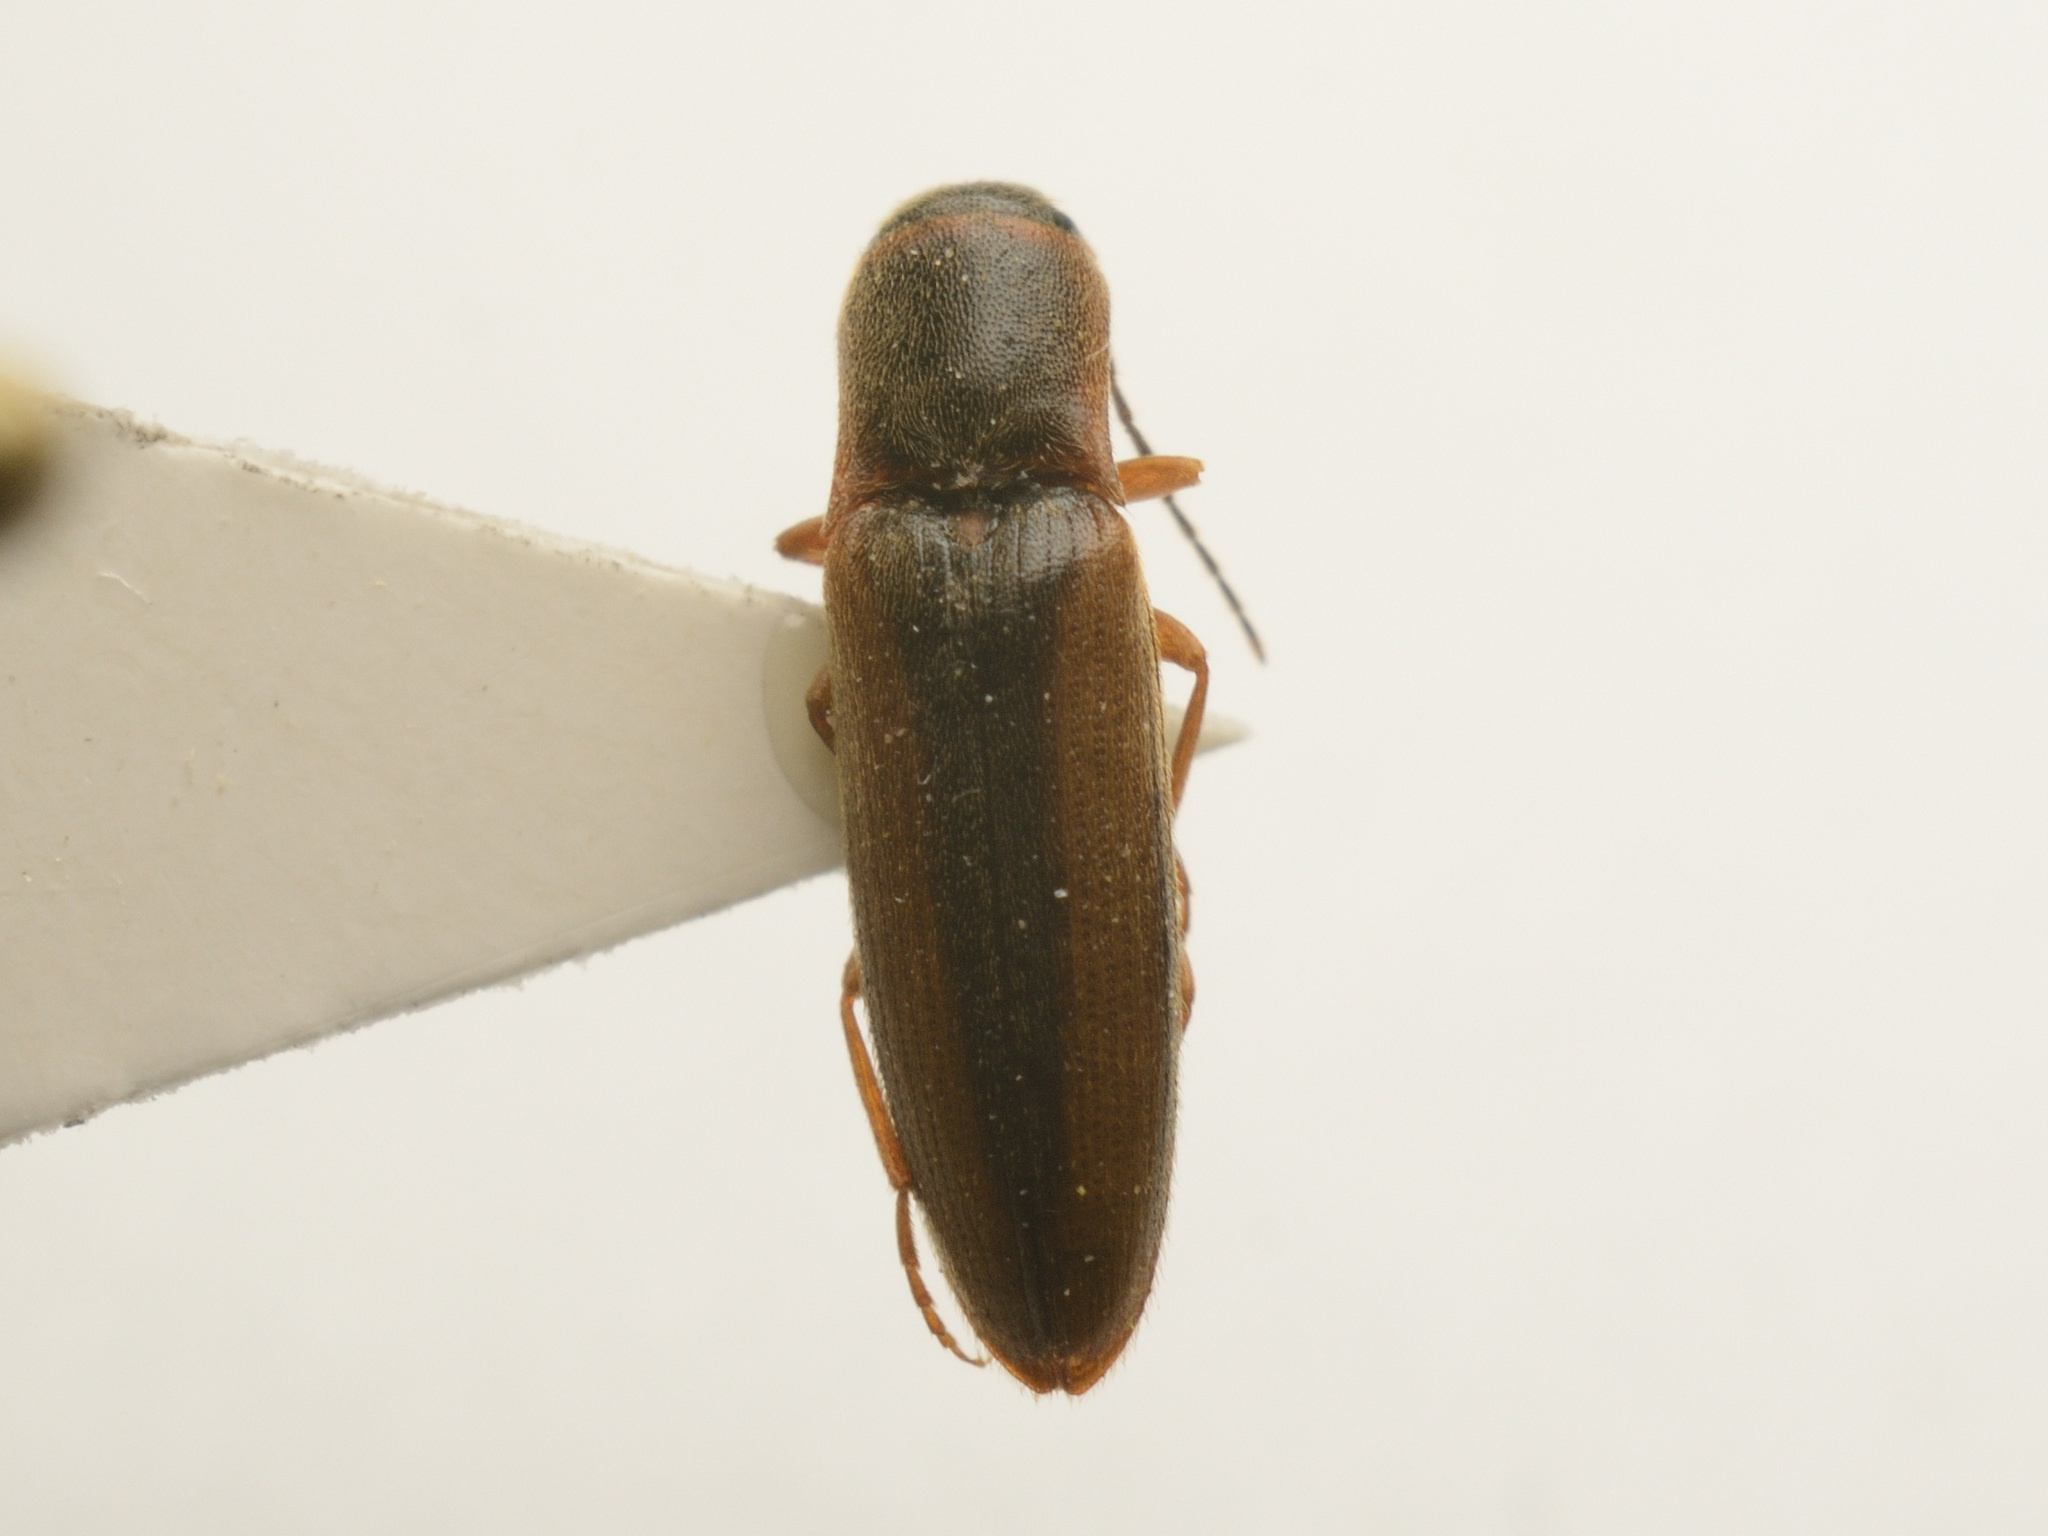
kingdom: Animalia
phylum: Arthropoda
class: Insecta
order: Coleoptera
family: Elateridae
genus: Dalopius
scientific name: Dalopius marginatus
